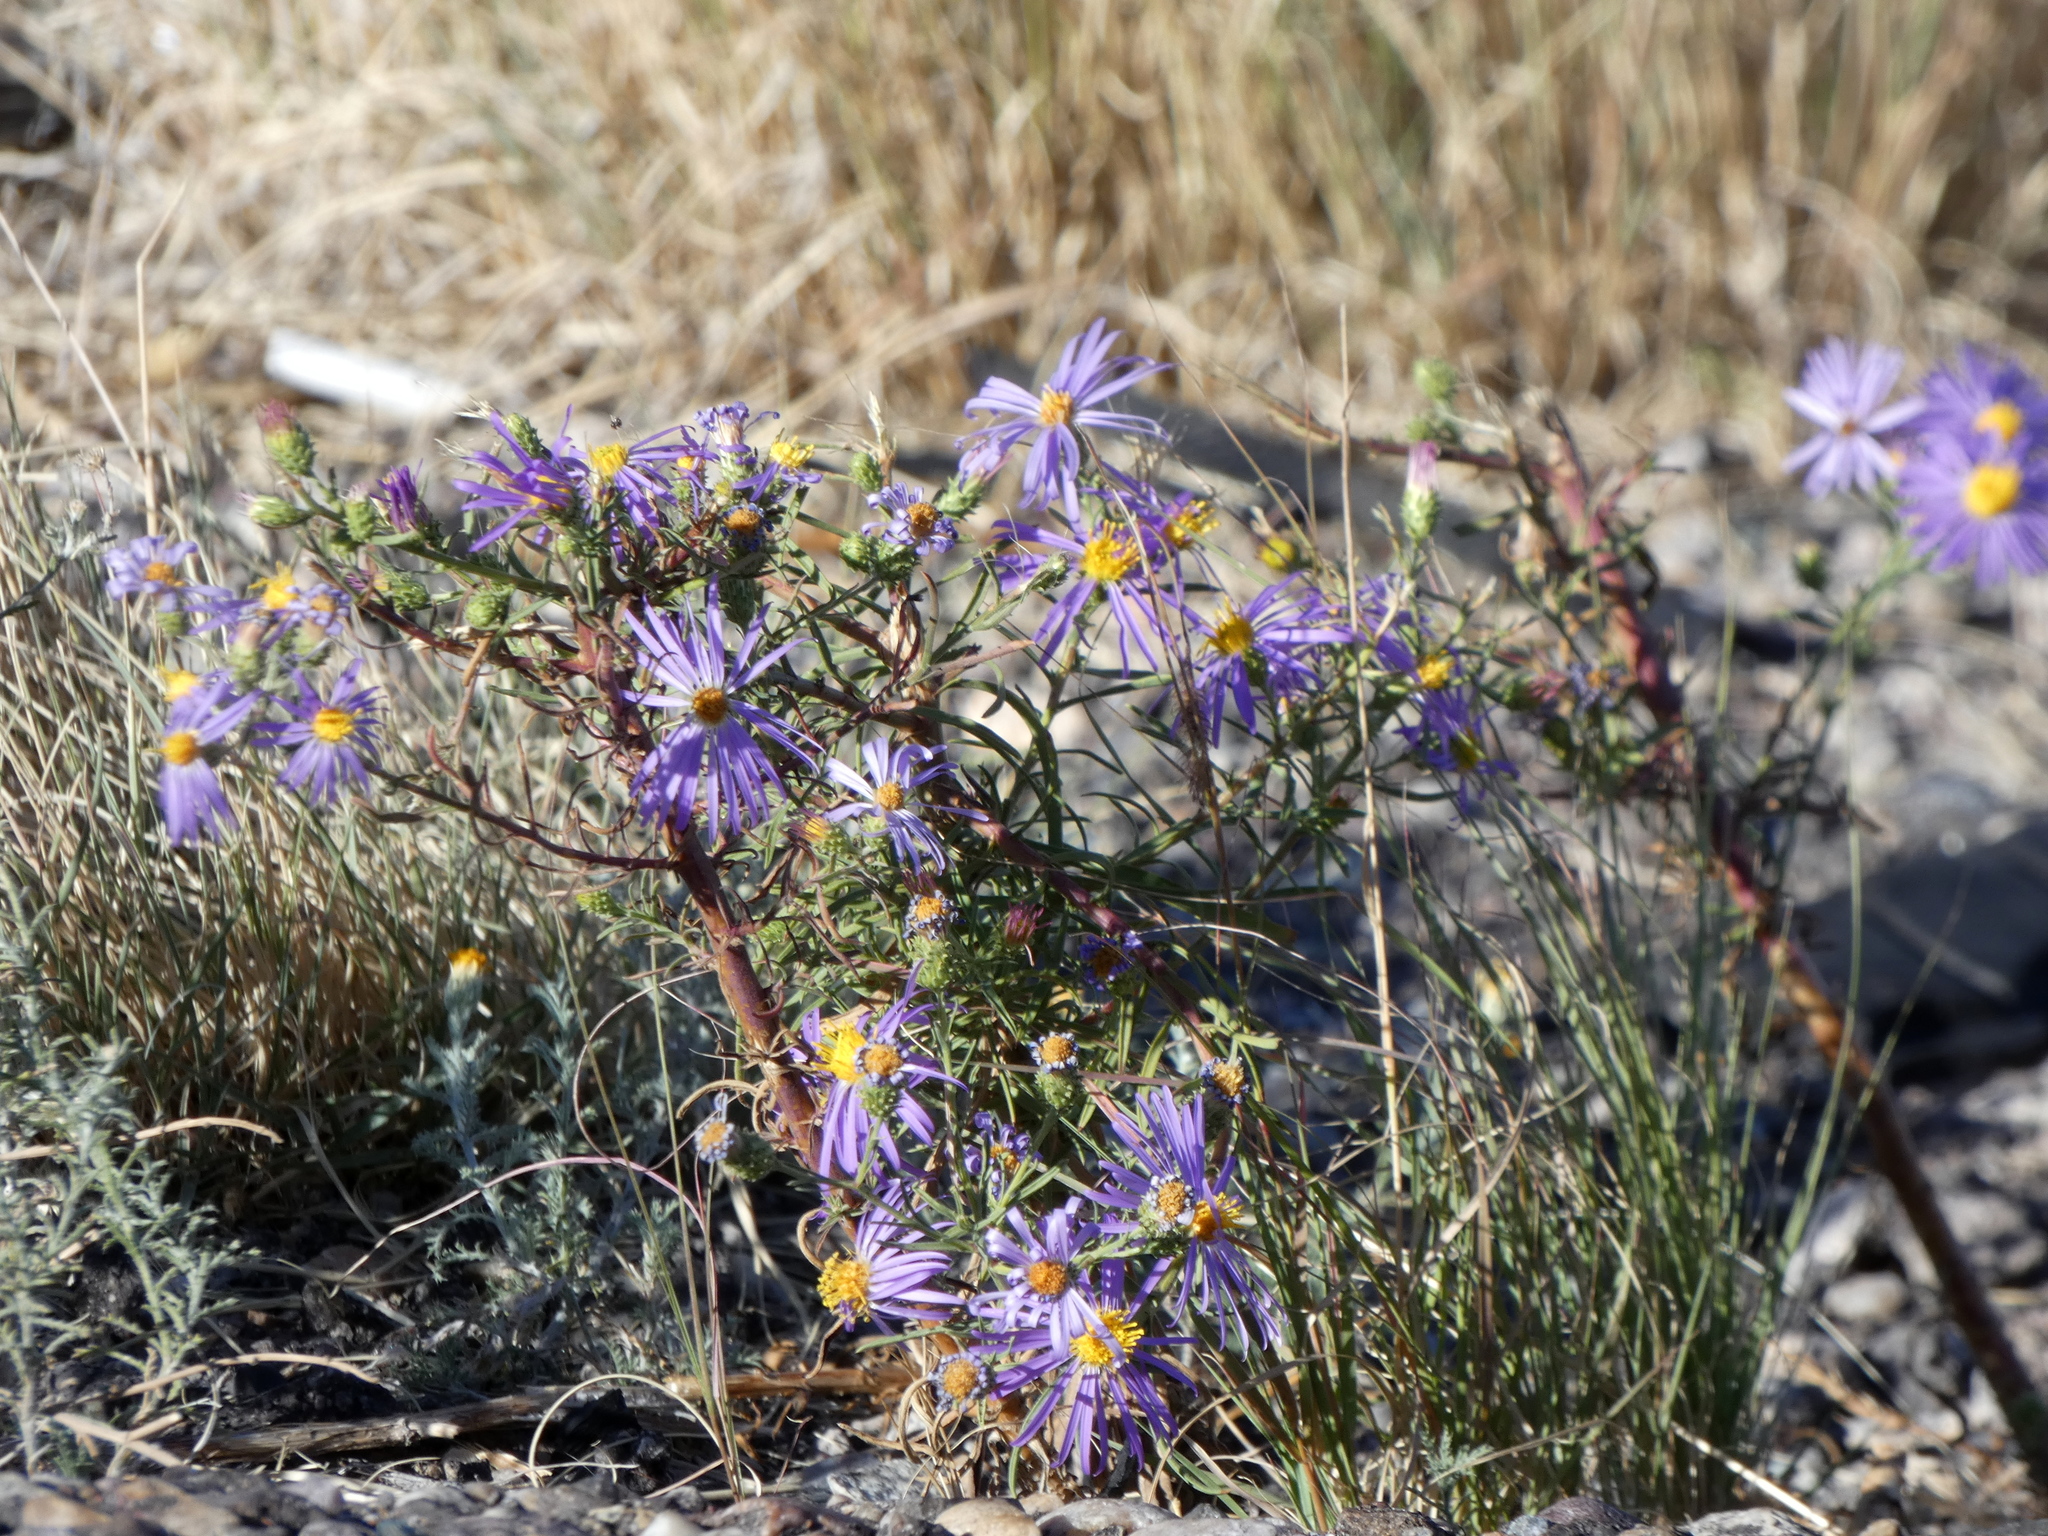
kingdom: Plantae
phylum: Tracheophyta
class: Magnoliopsida
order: Asterales
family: Asteraceae
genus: Dieteria
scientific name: Dieteria canescens
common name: Hoary-aster
